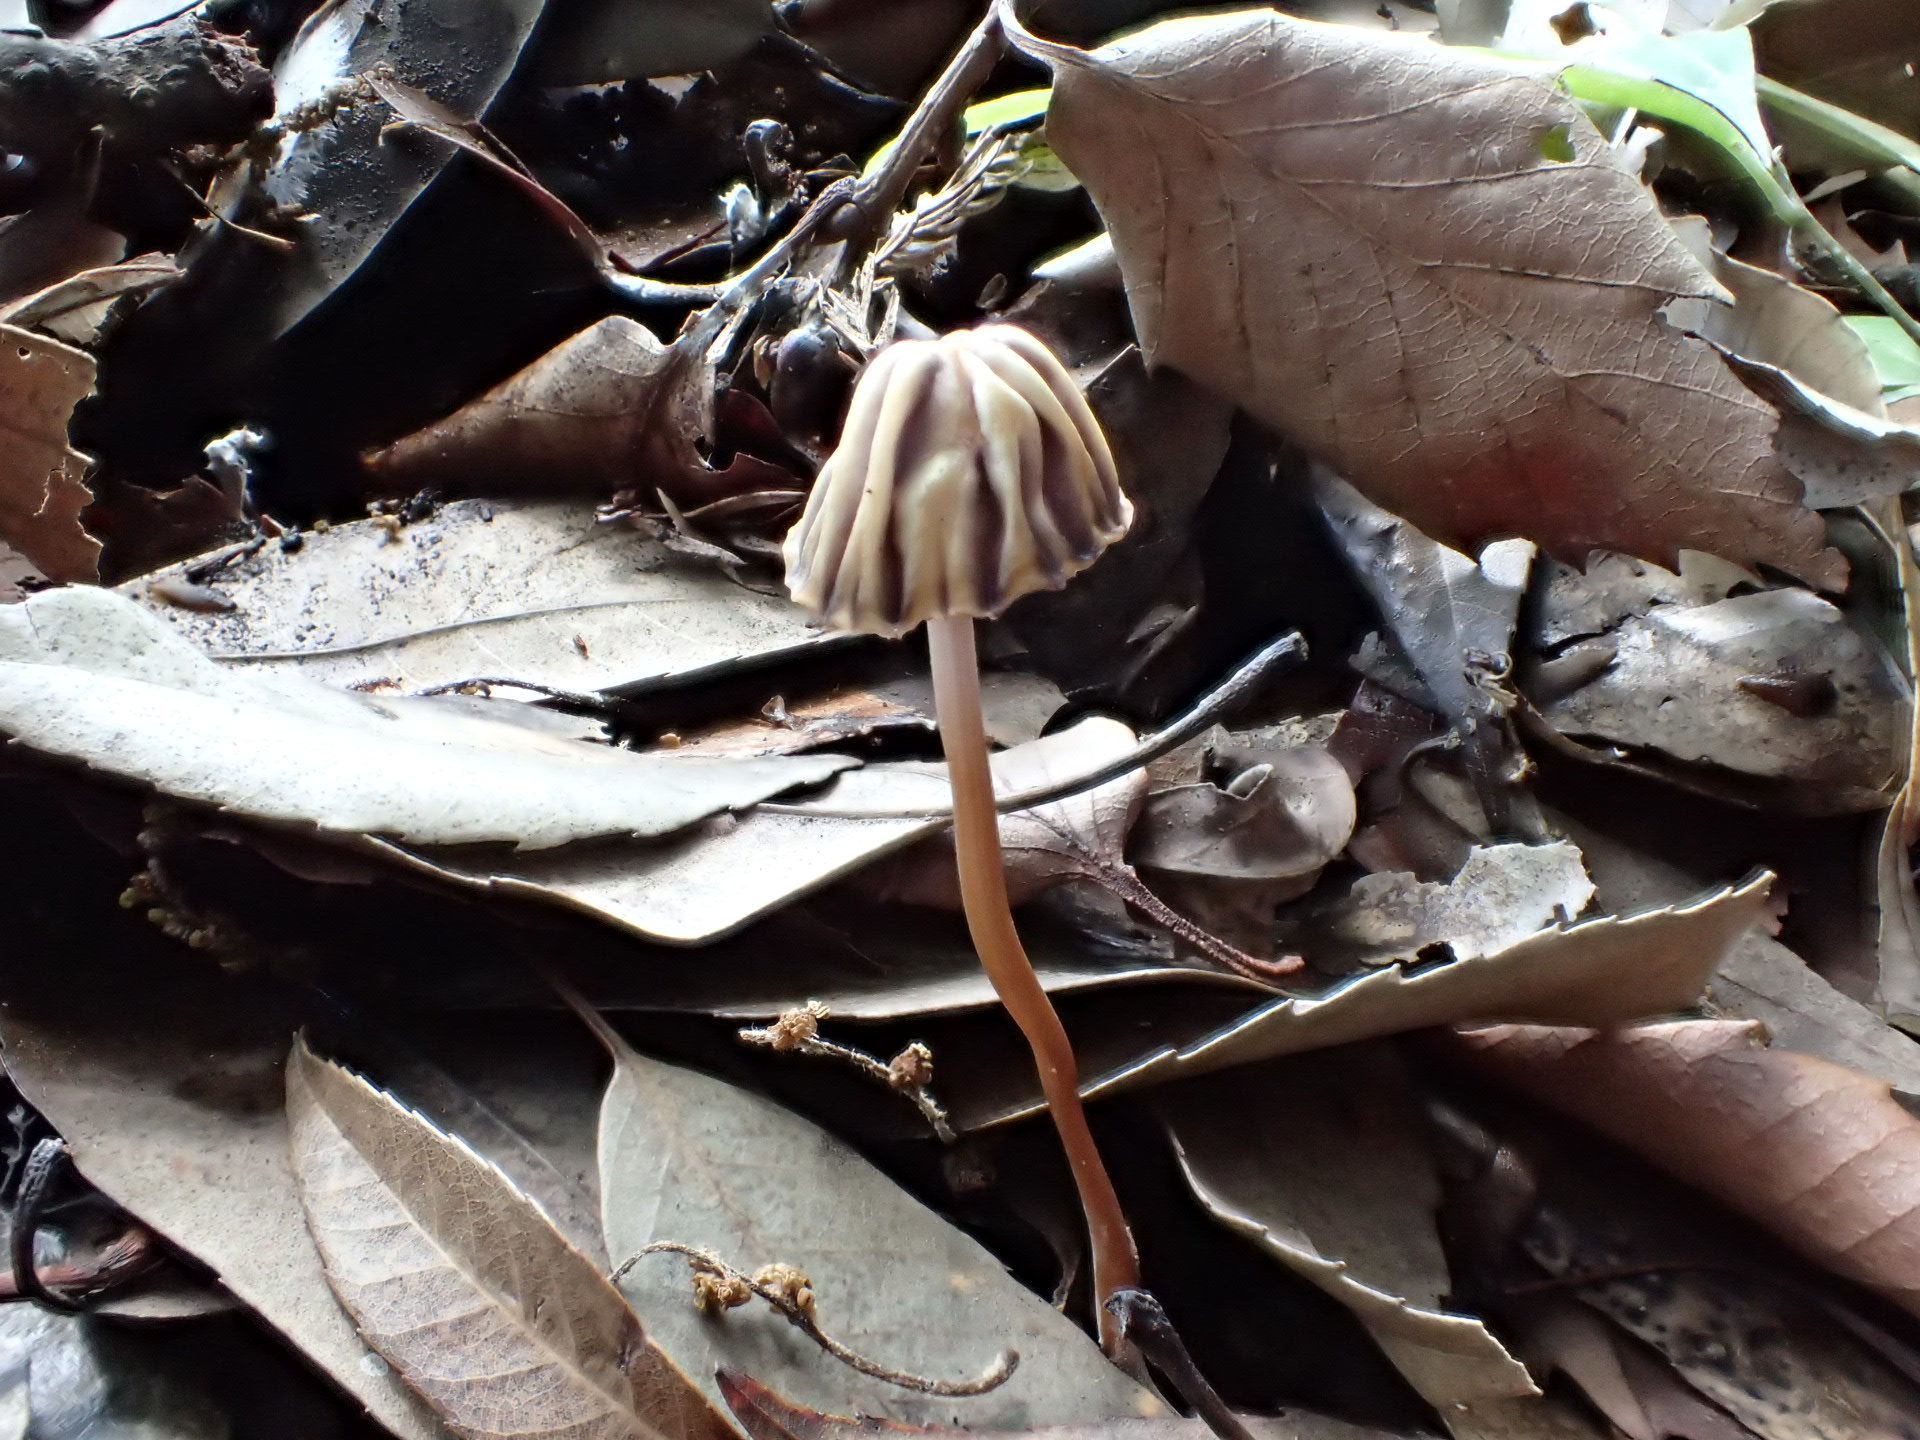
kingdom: Fungi
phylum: Basidiomycota
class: Agaricomycetes
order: Agaricales
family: Marasmiaceae
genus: Marasmius
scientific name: Marasmius purpureostriatus
